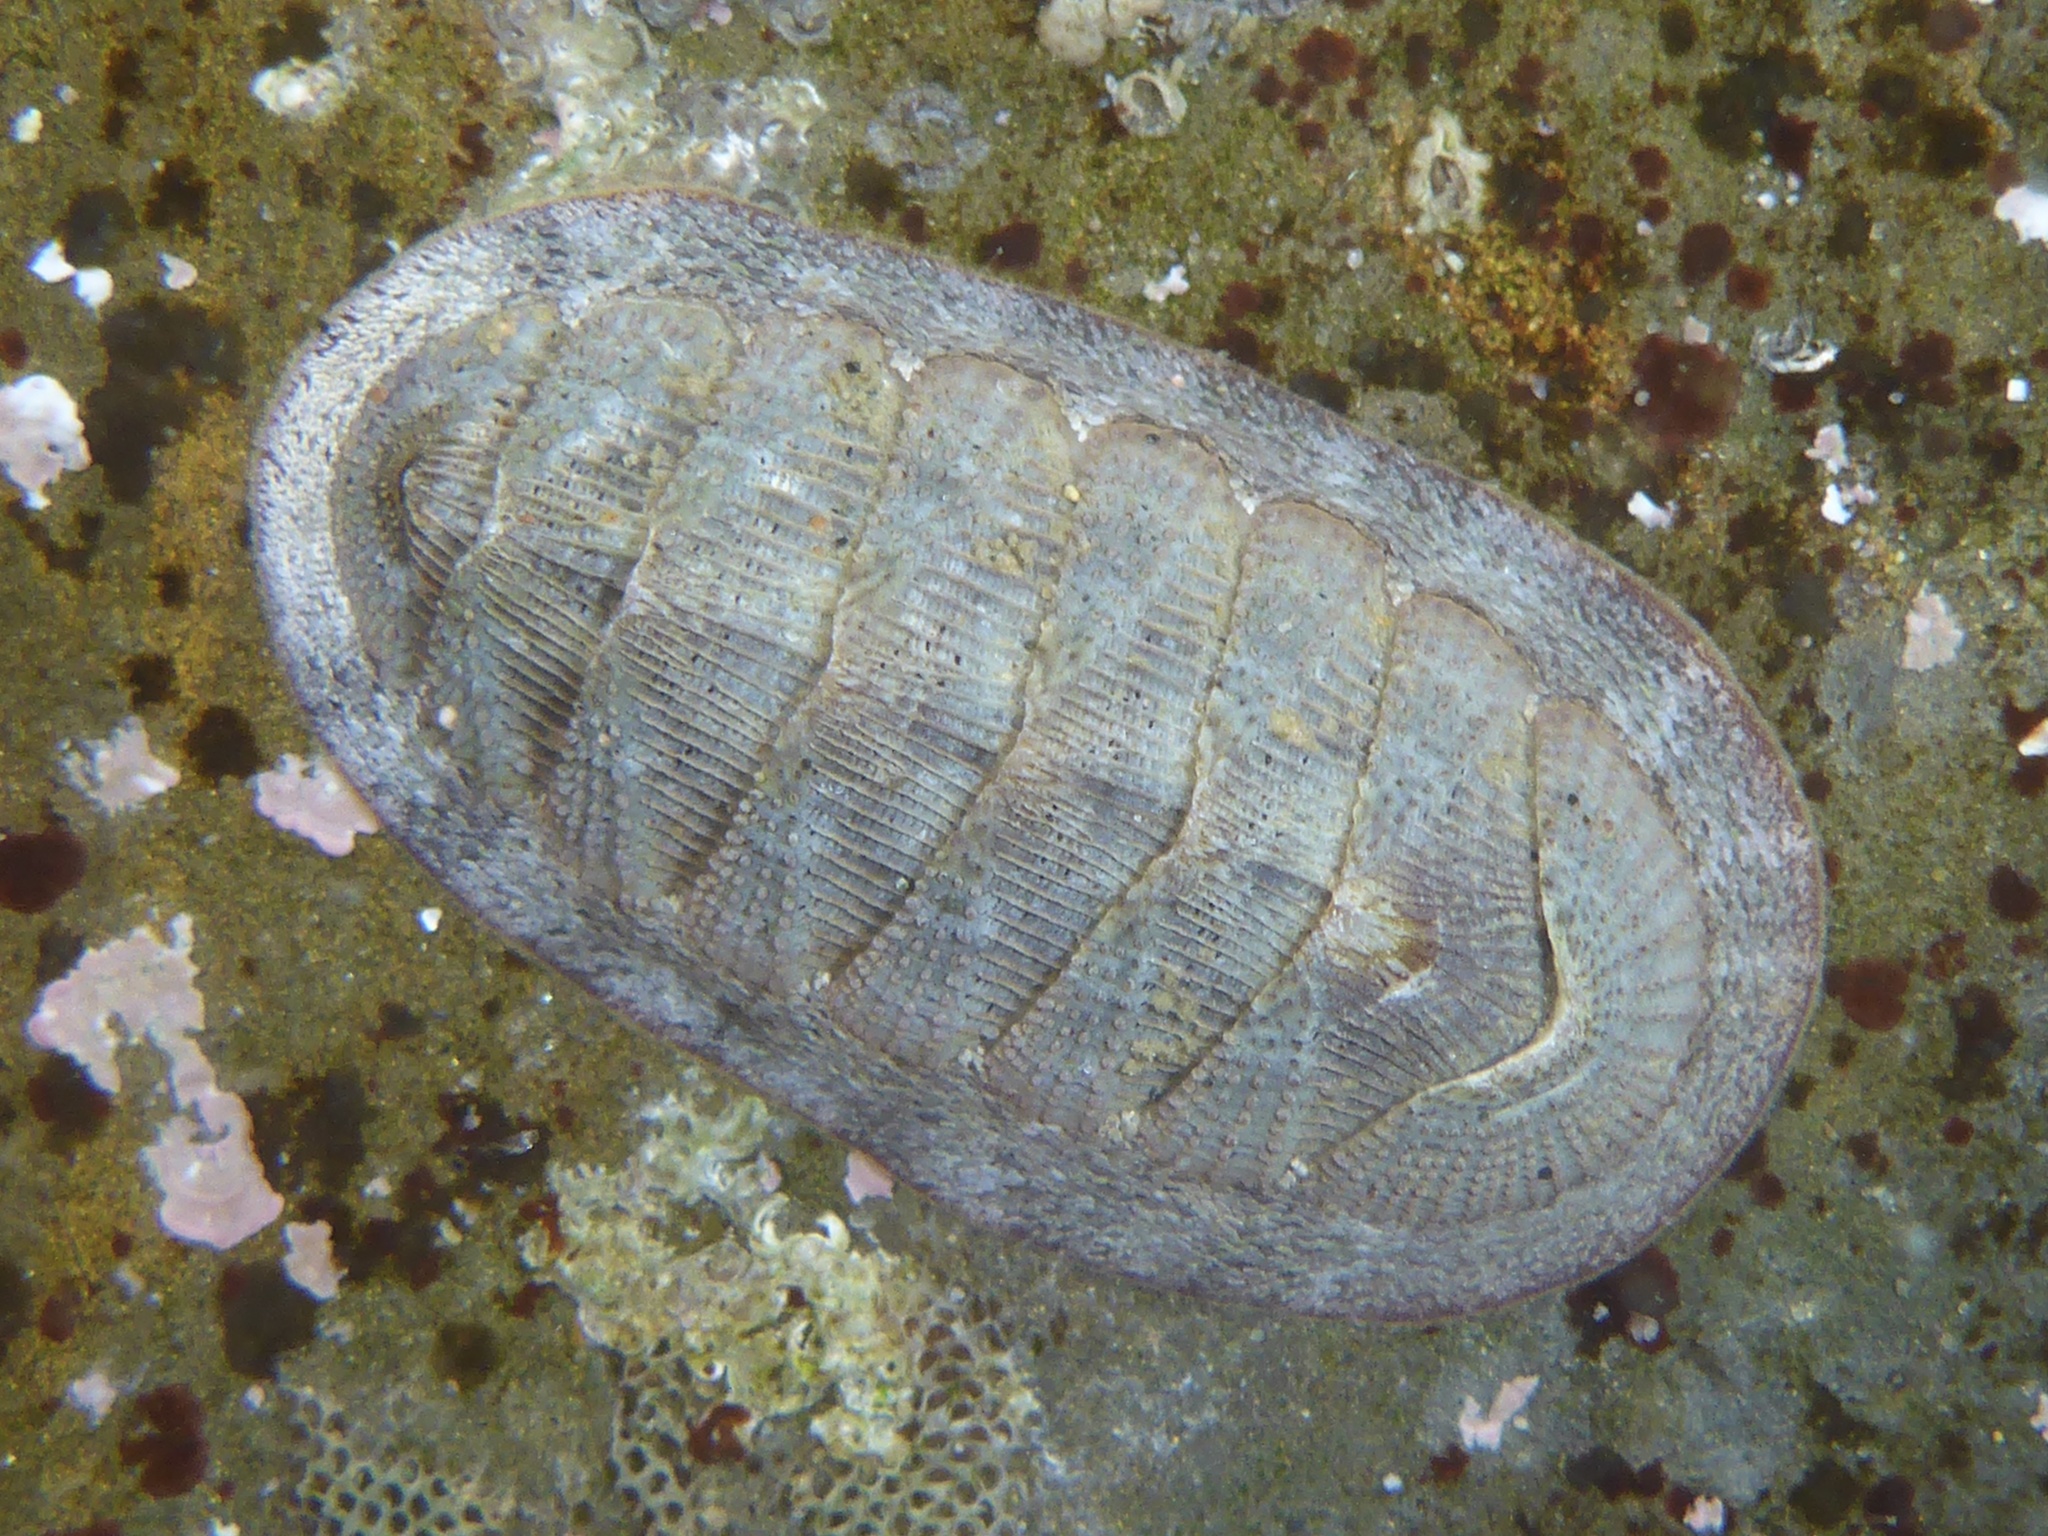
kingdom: Animalia
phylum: Mollusca
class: Polyplacophora
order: Chitonida
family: Ischnochitonidae
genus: Lepidozona
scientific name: Lepidozona cooperi
